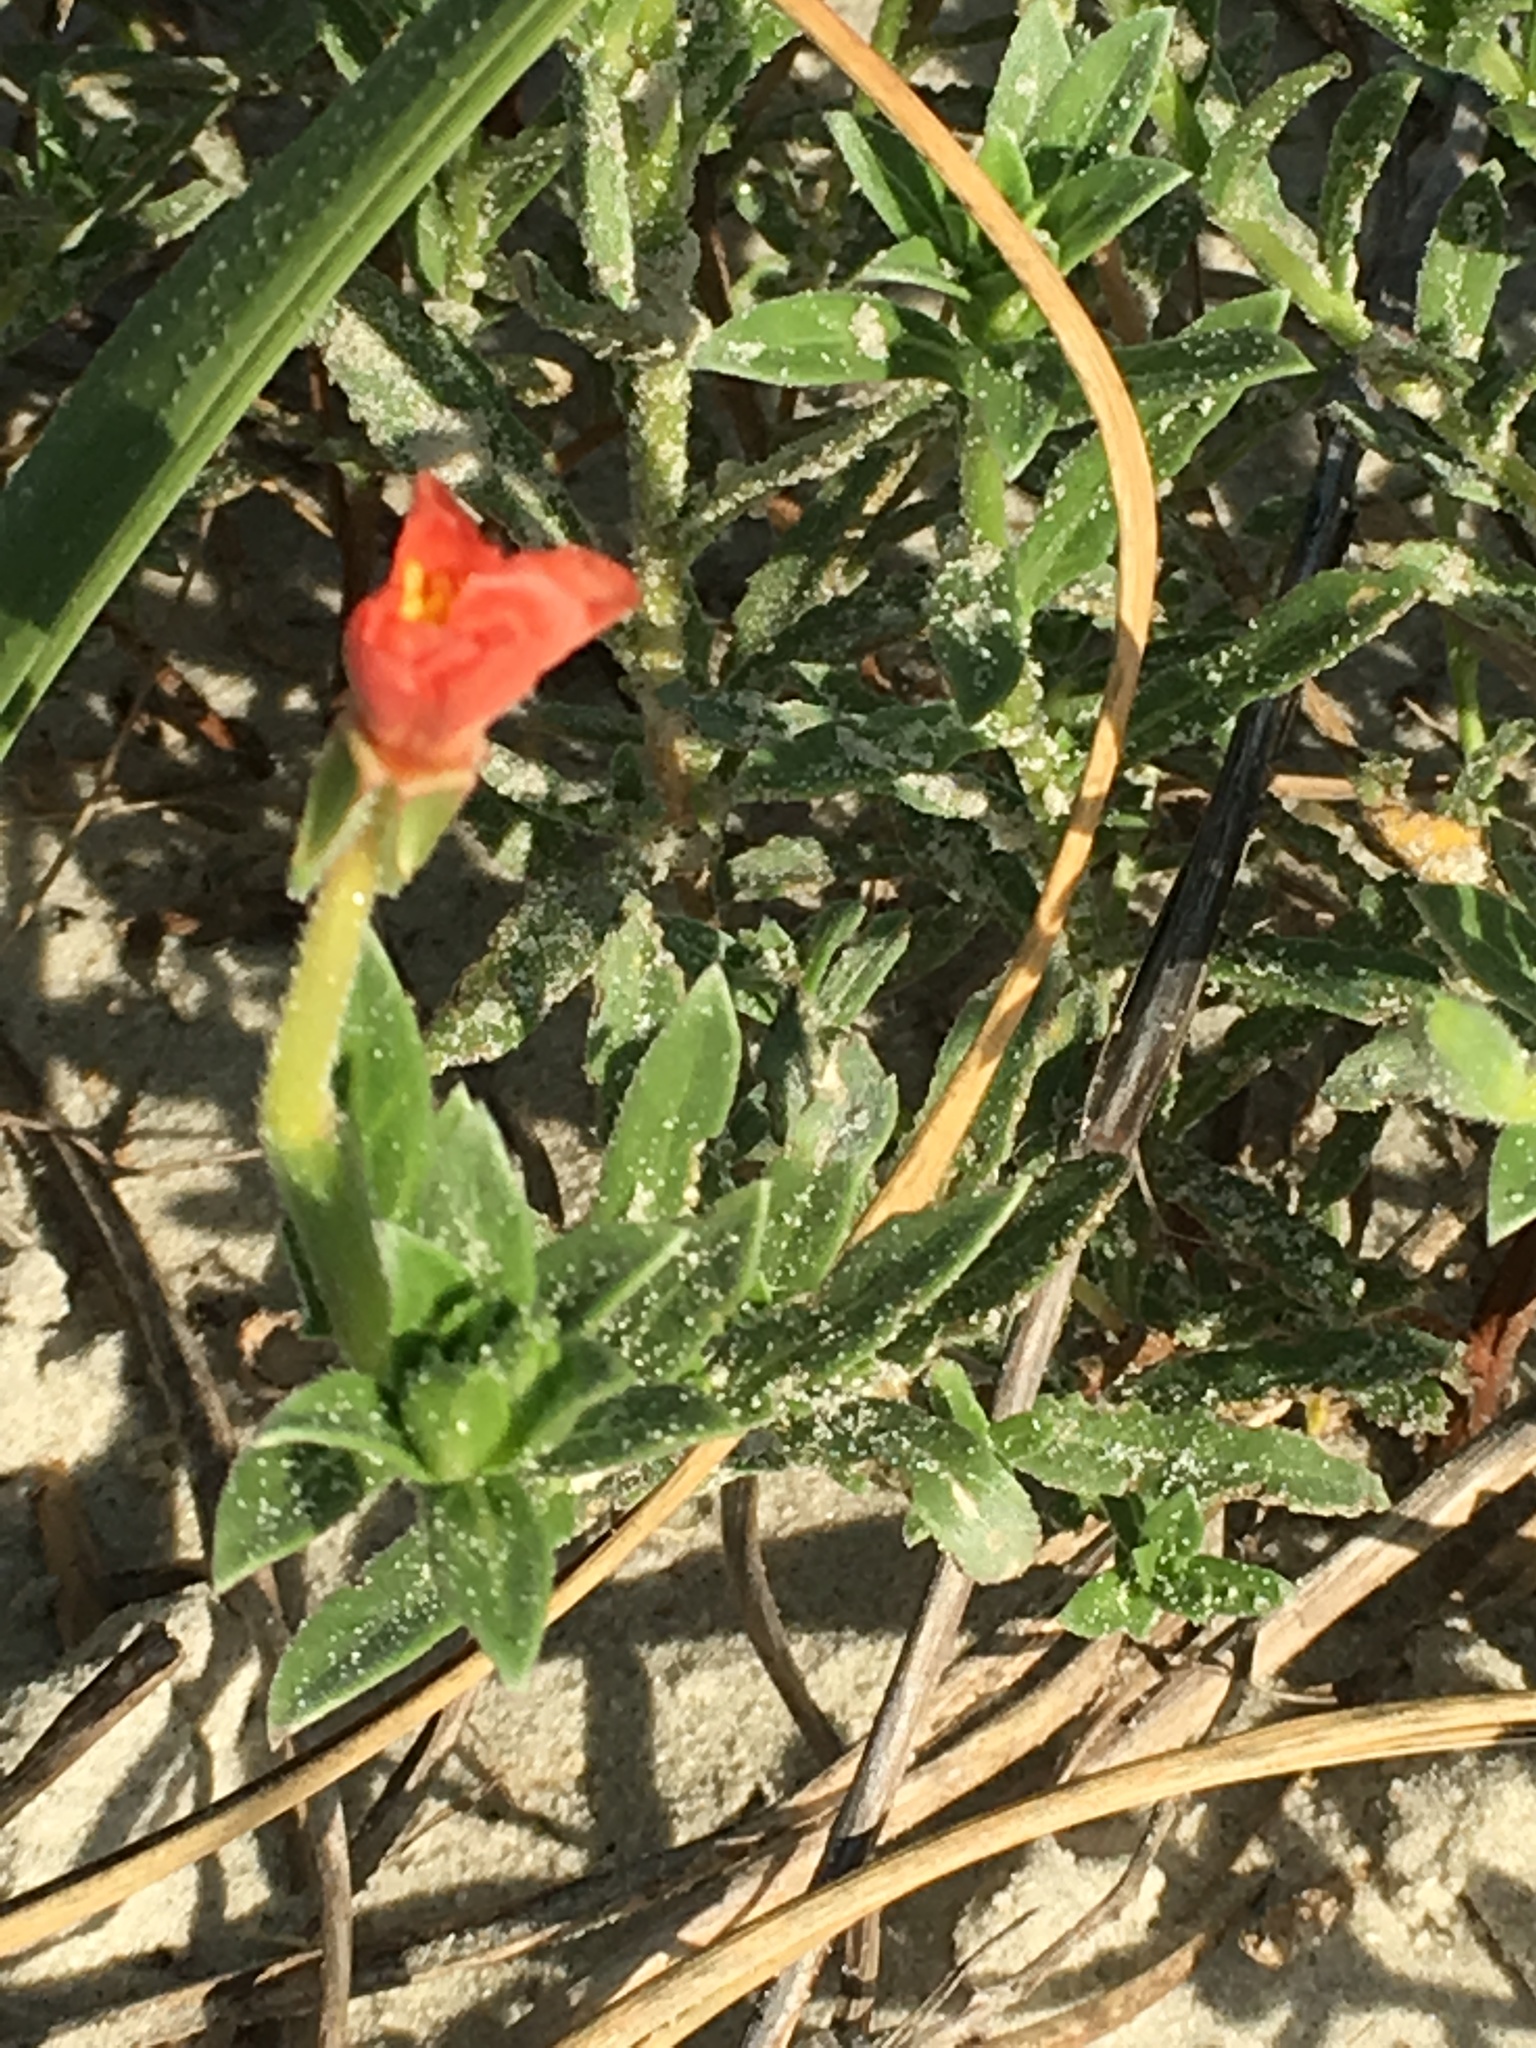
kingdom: Plantae
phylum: Tracheophyta
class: Magnoliopsida
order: Myrtales
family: Onagraceae
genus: Oenothera
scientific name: Oenothera humifusa
